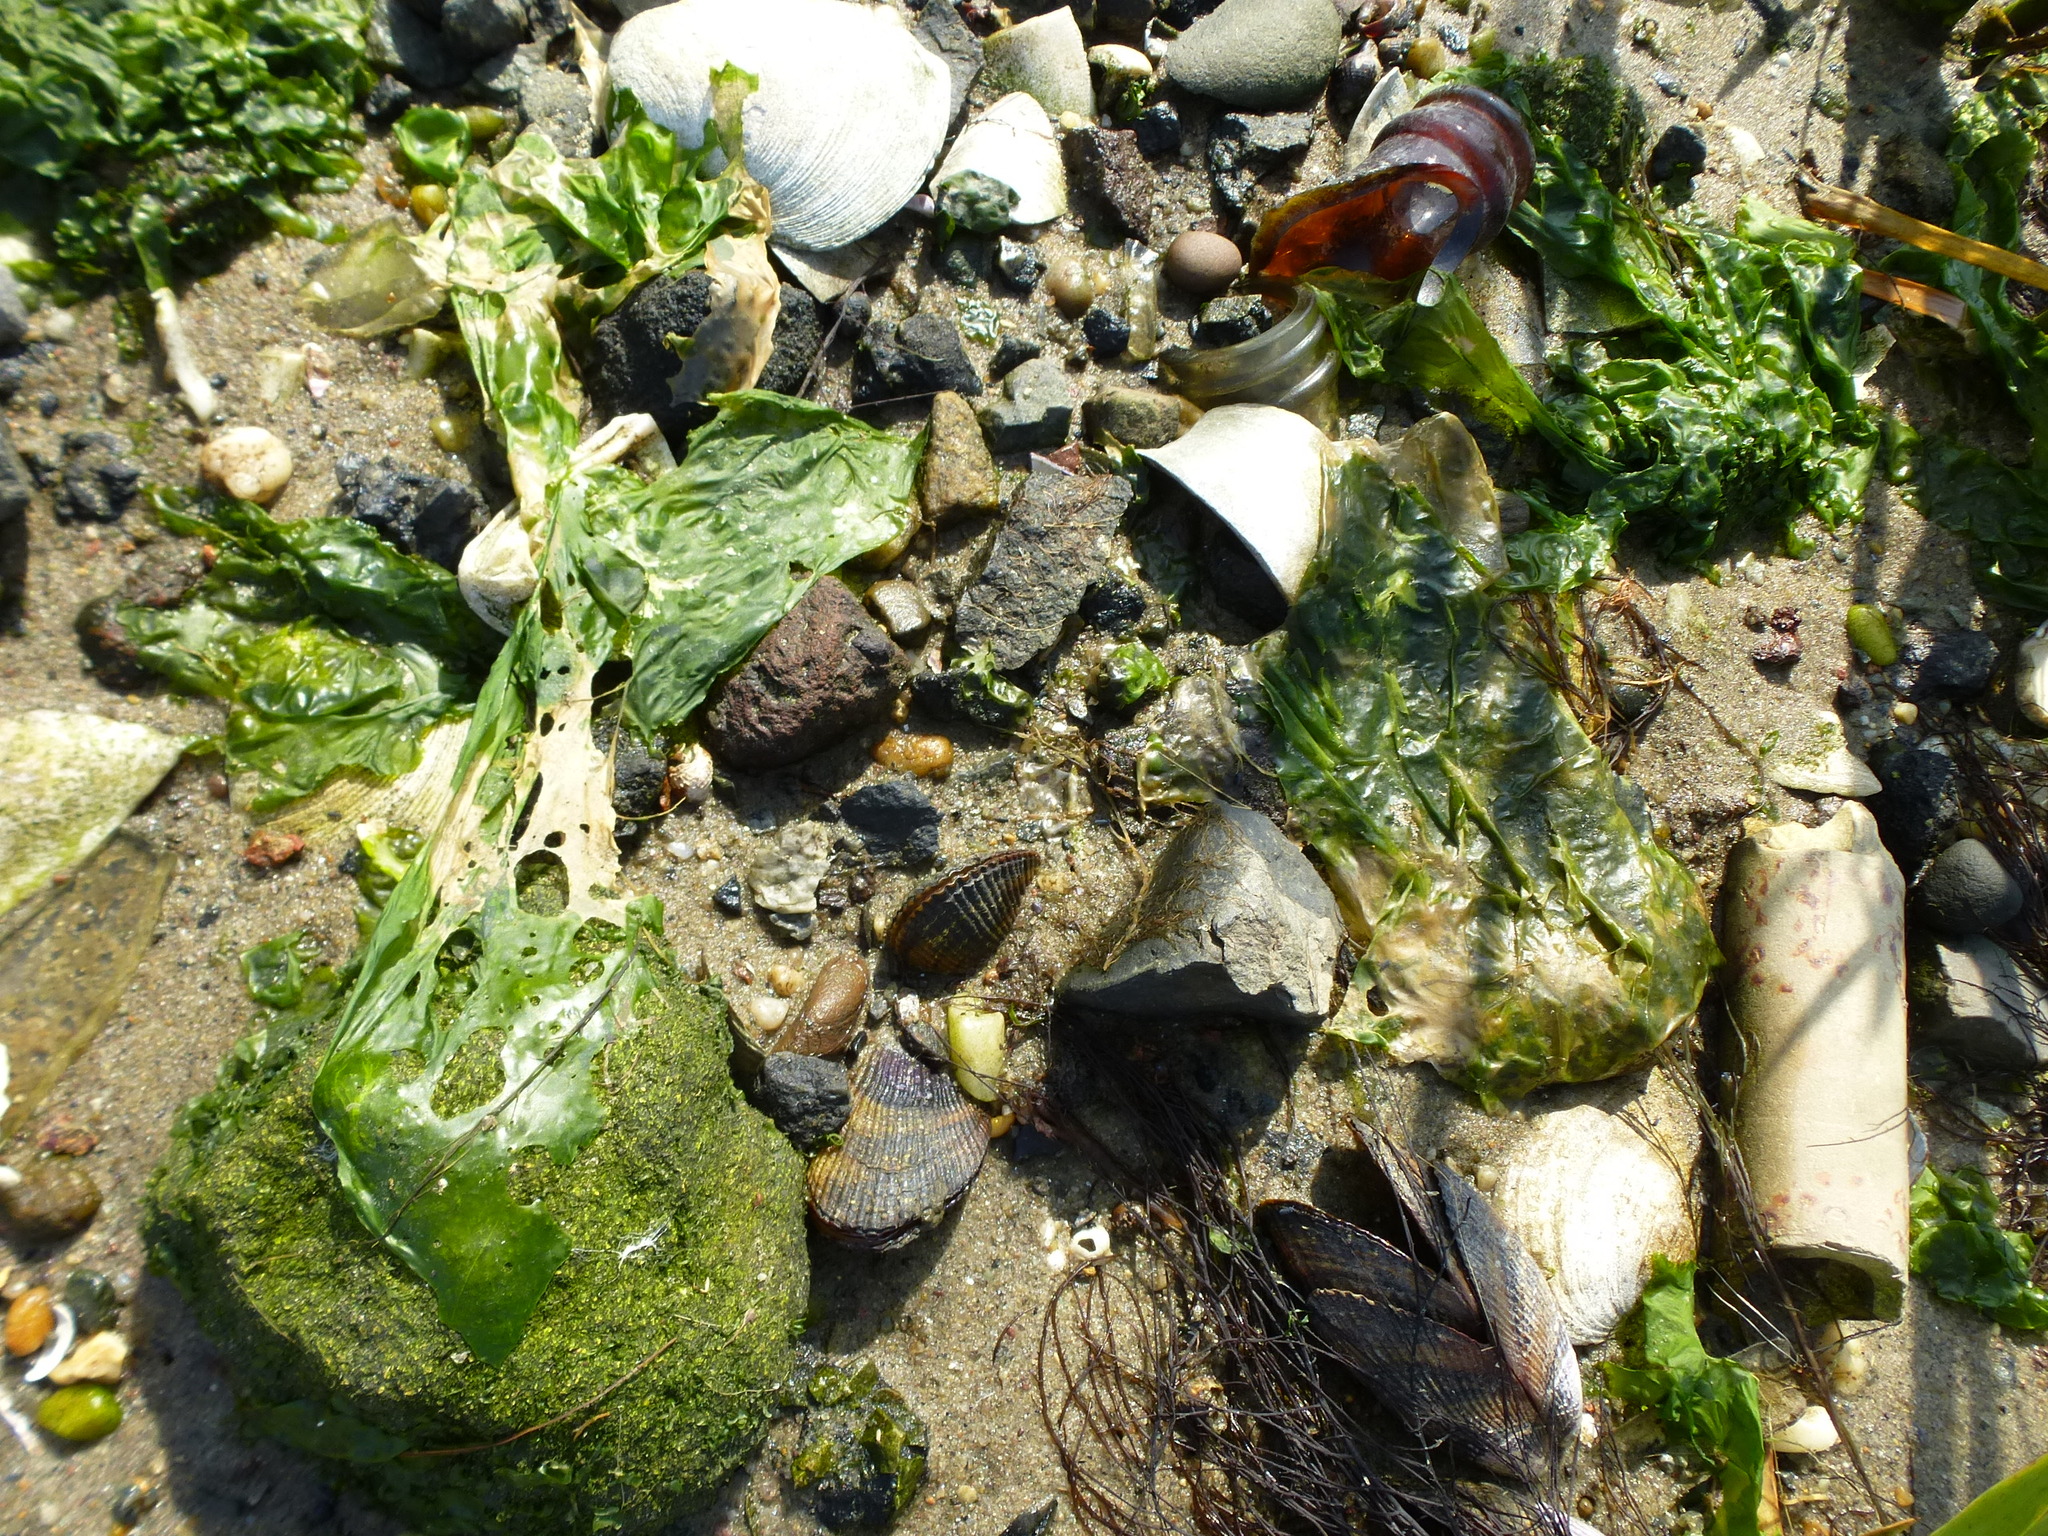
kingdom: Animalia
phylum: Mollusca
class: Bivalvia
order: Mytilida
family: Mytilidae
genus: Geukensia
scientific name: Geukensia demissa
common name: Ribbed mussel
